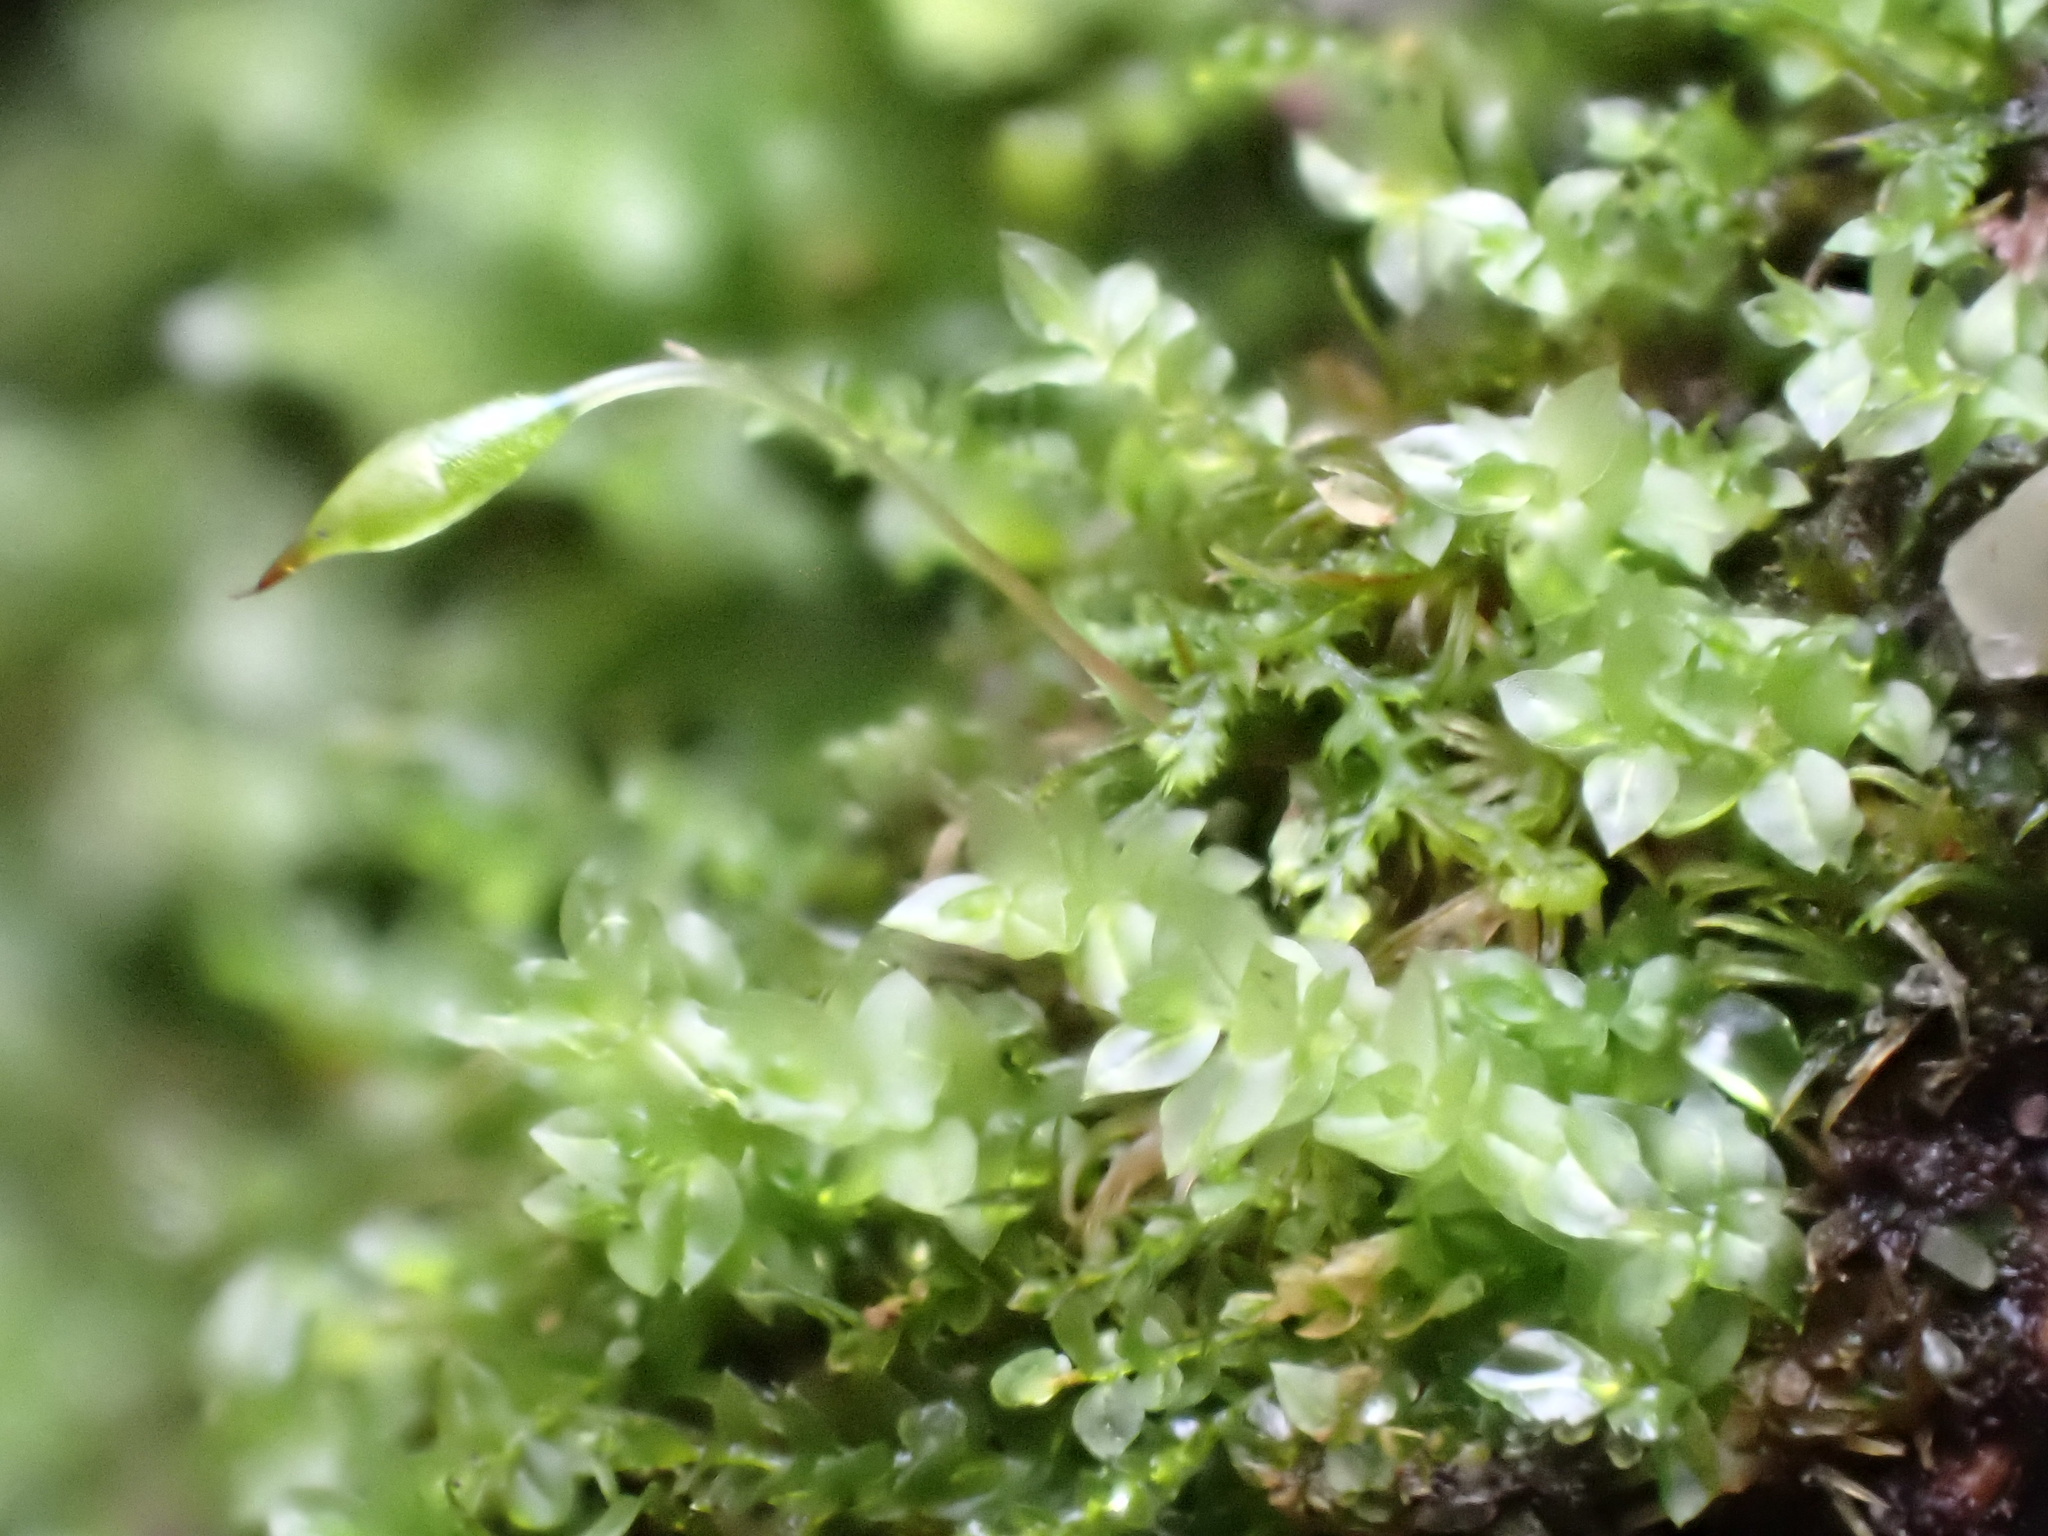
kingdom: Plantae
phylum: Bryophyta
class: Polytrichopsida
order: Tetraphidales
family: Tetraphidaceae
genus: Tetraphis
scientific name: Tetraphis pellucida
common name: Common four-toothed moss
